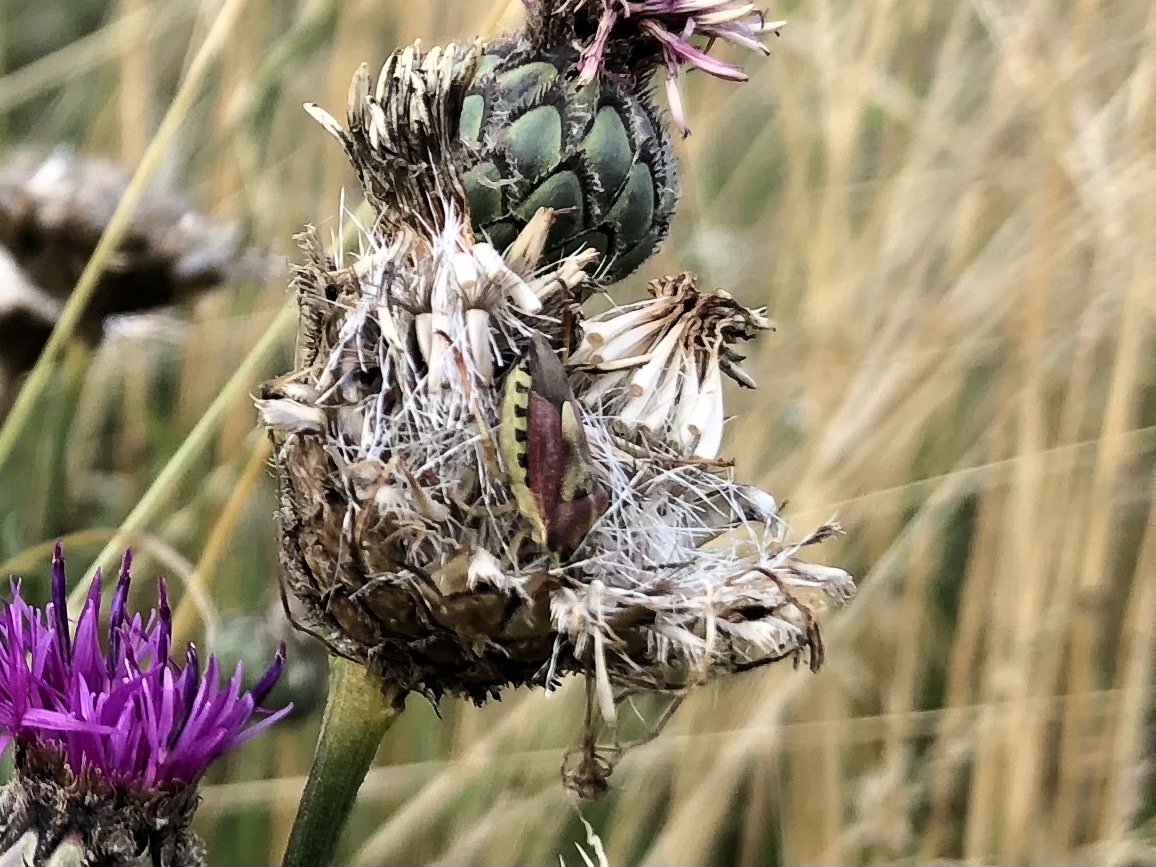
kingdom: Animalia
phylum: Arthropoda
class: Insecta
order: Hemiptera
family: Pentatomidae
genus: Carpocoris
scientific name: Carpocoris purpureipennis
